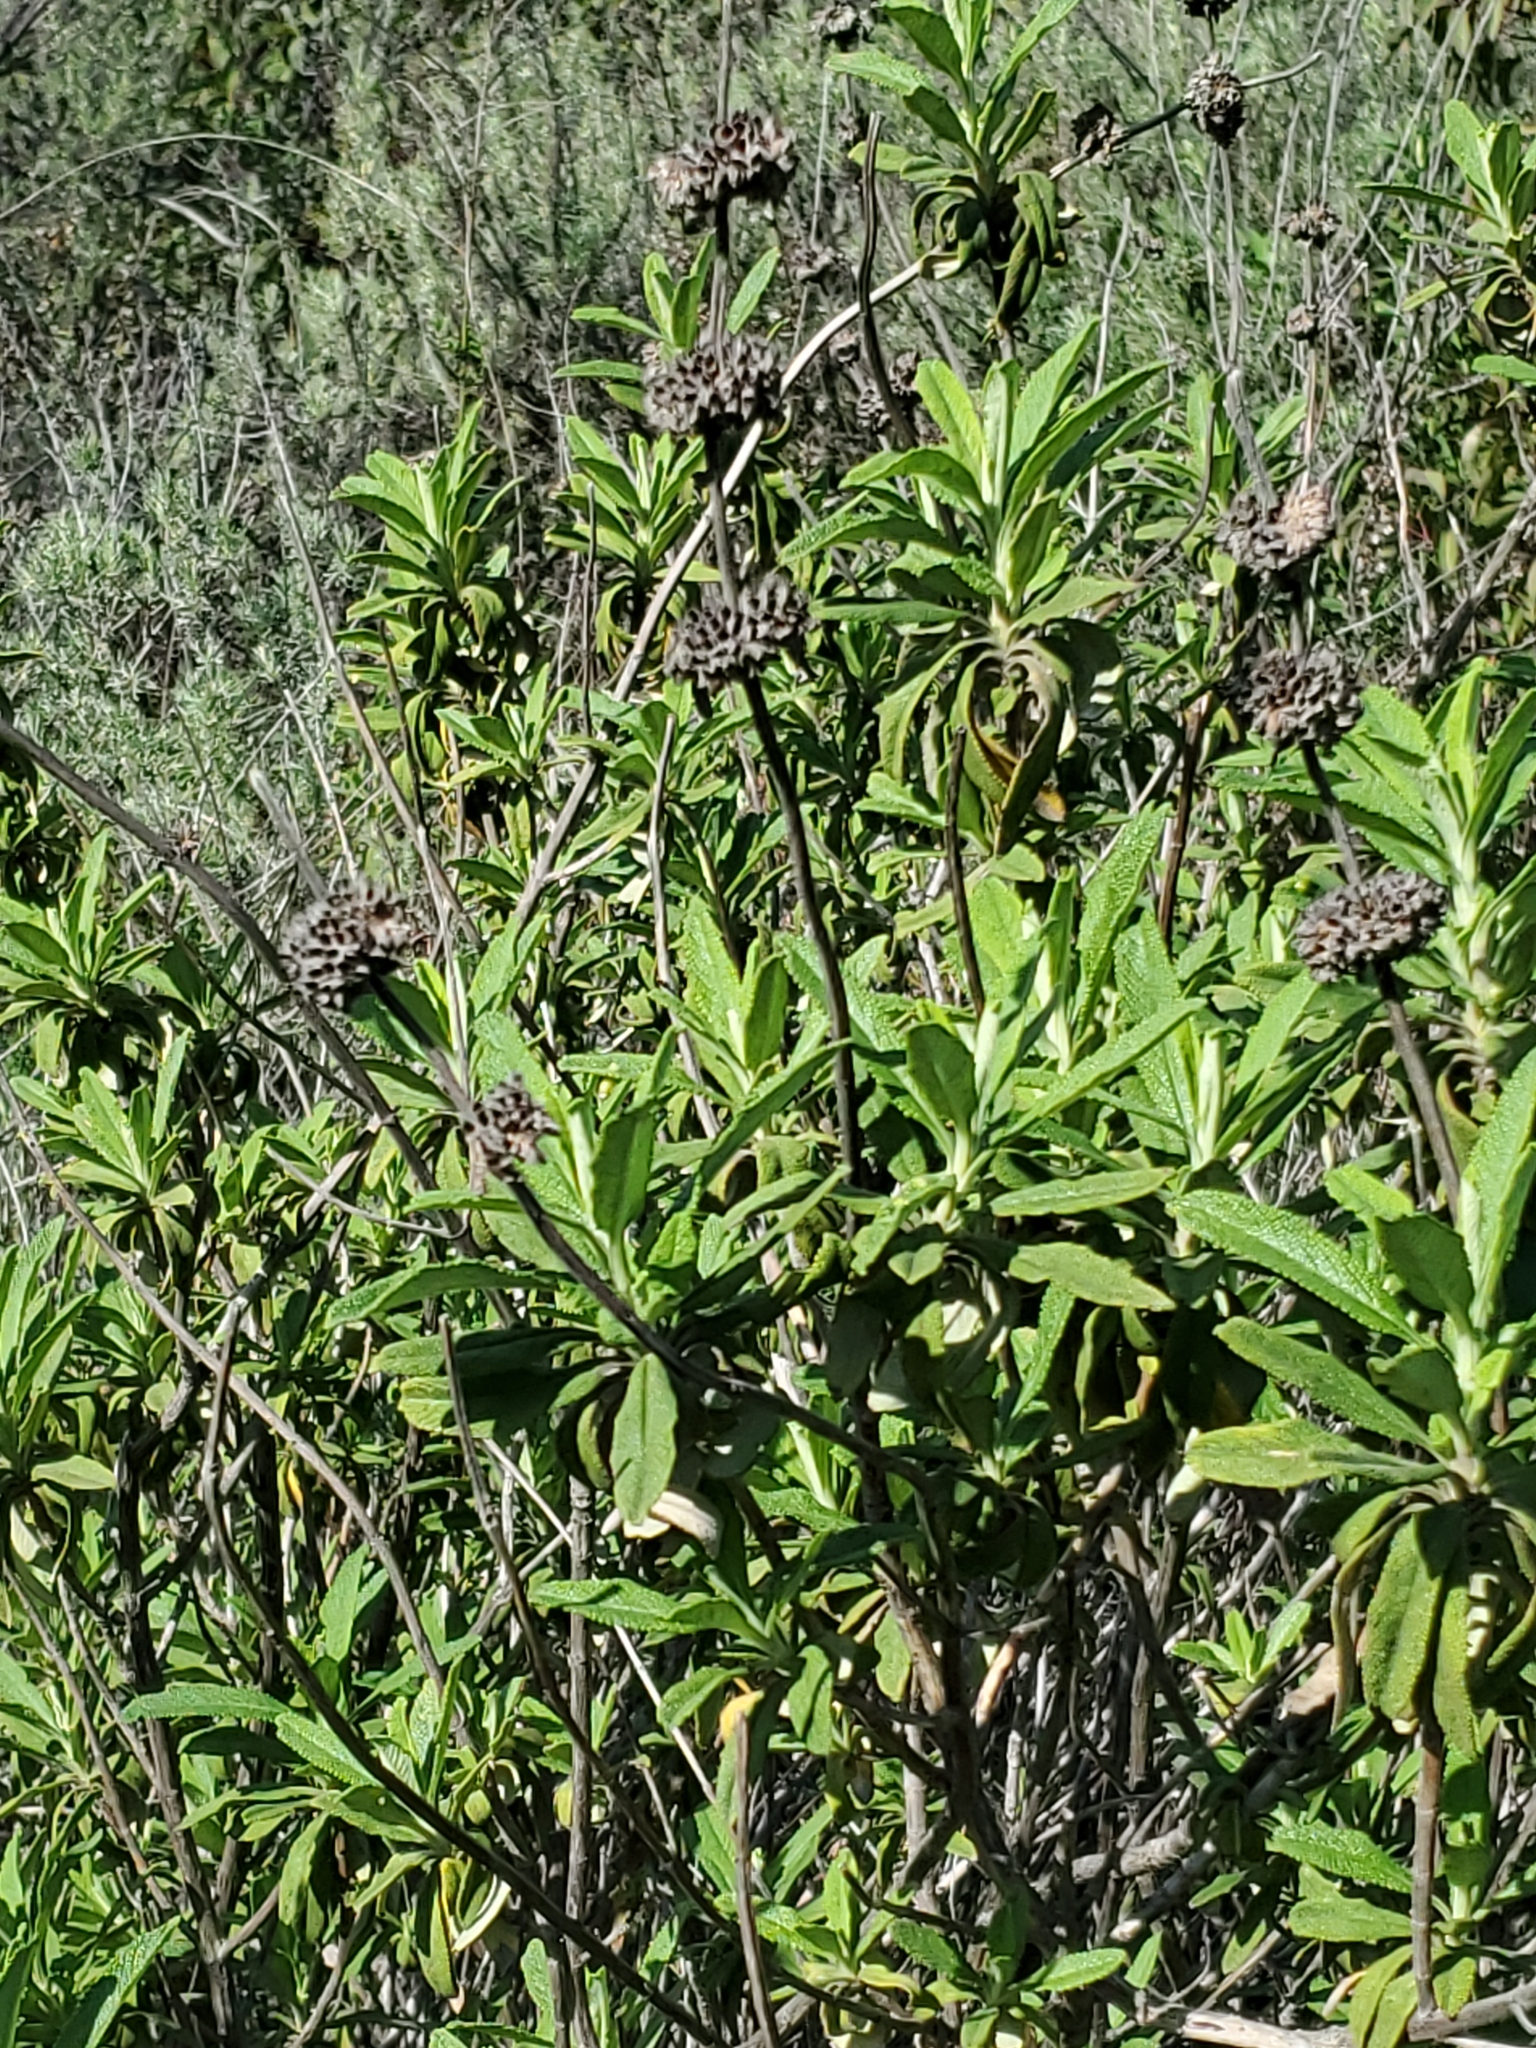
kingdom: Plantae
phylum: Tracheophyta
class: Magnoliopsida
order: Lamiales
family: Lamiaceae
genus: Salvia
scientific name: Salvia mellifera
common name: Black sage
